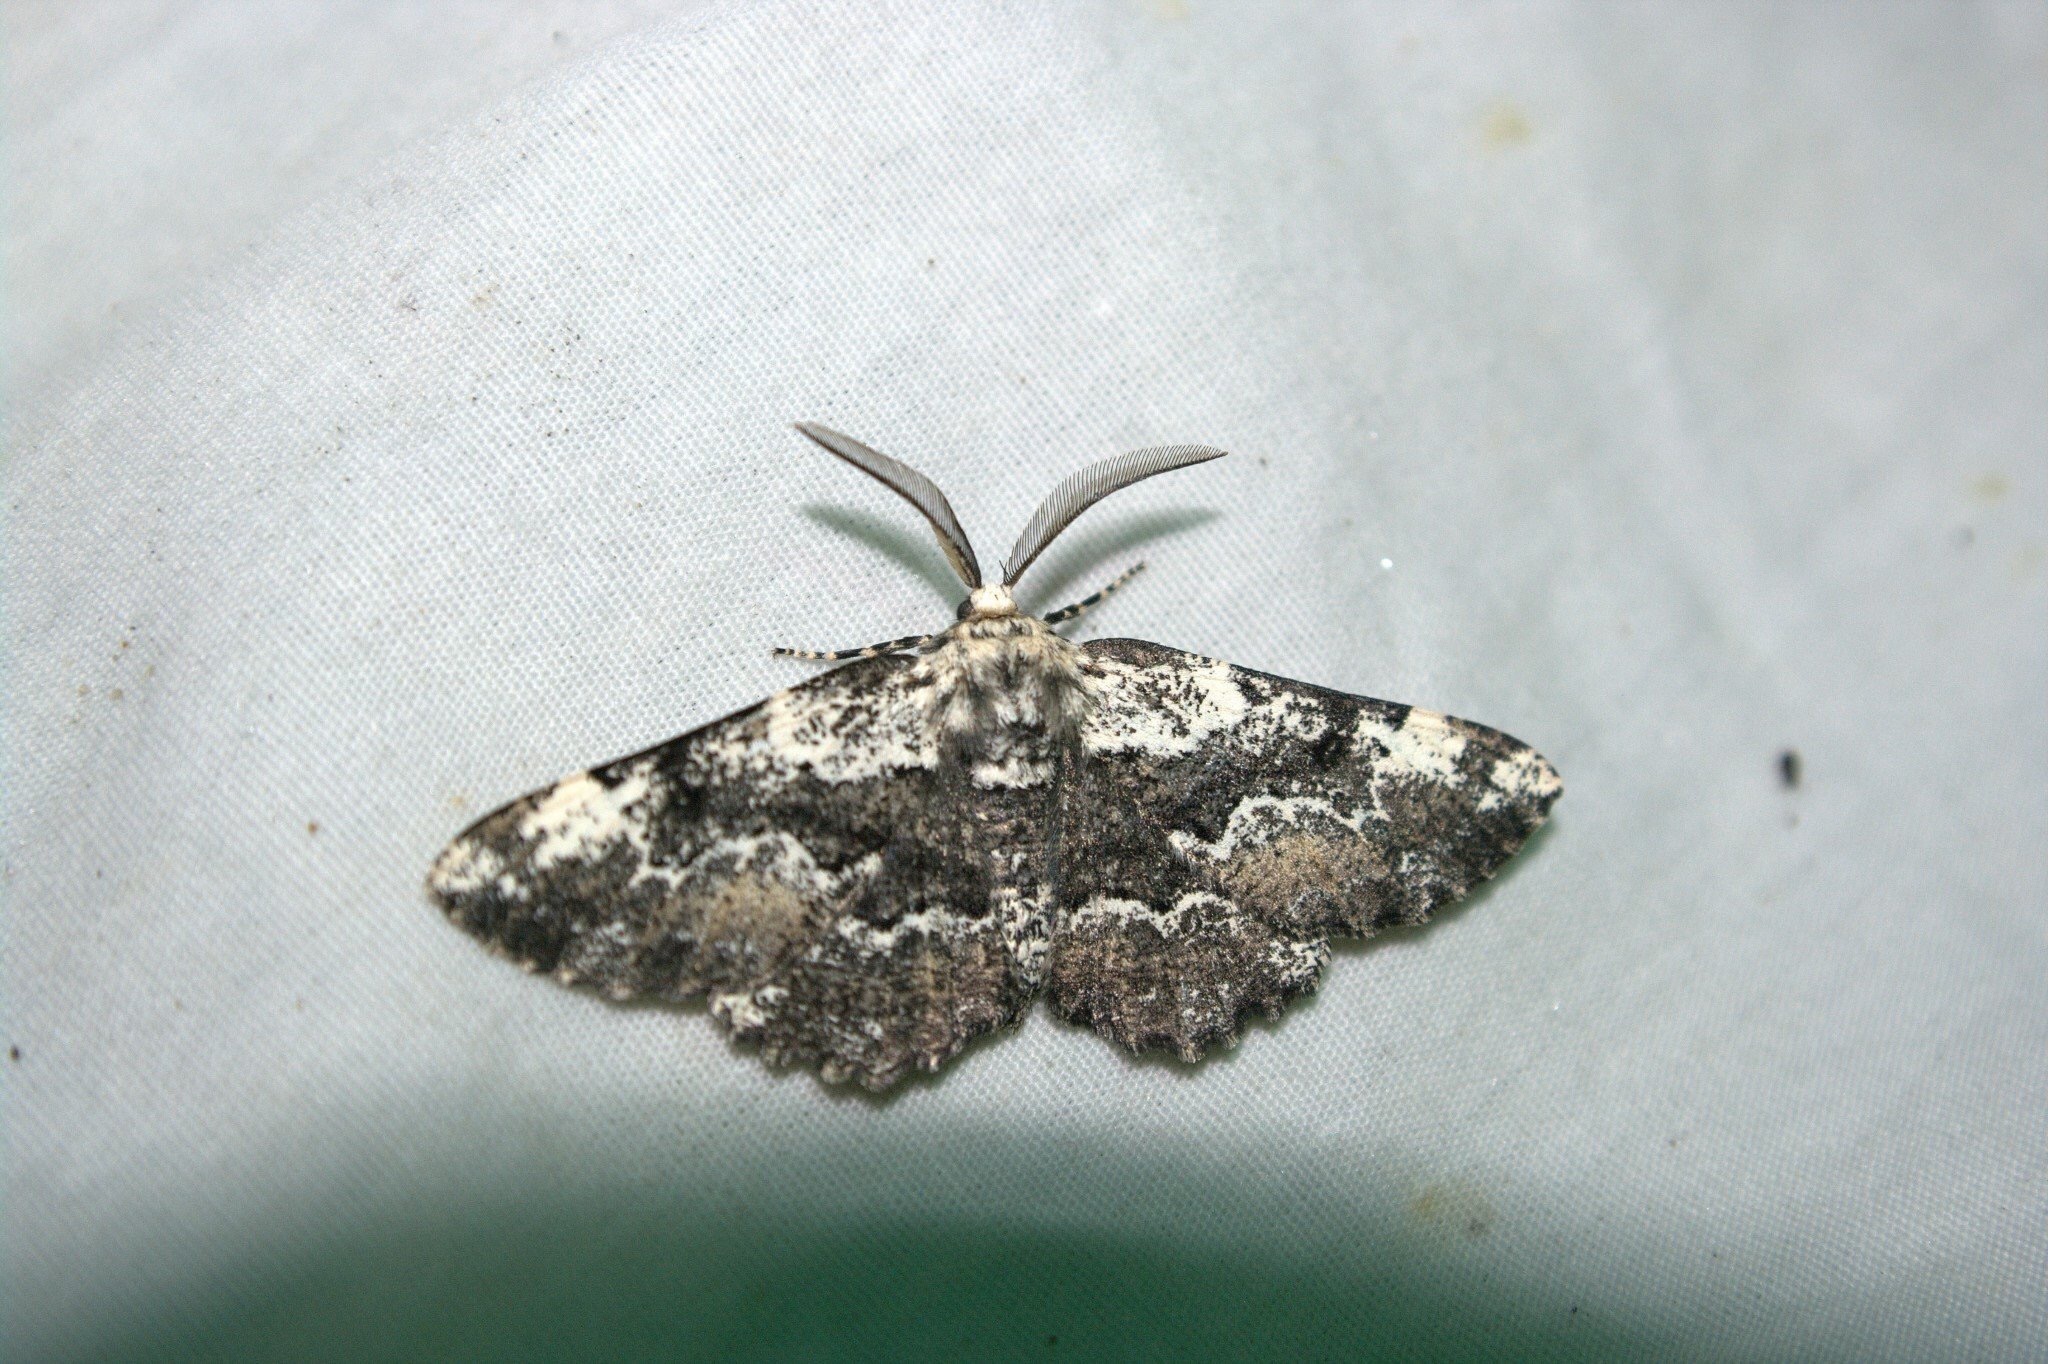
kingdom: Animalia
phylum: Arthropoda
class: Insecta
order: Lepidoptera
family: Geometridae
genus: Phaeoura
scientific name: Phaeoura quernaria
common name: Oak beauty
